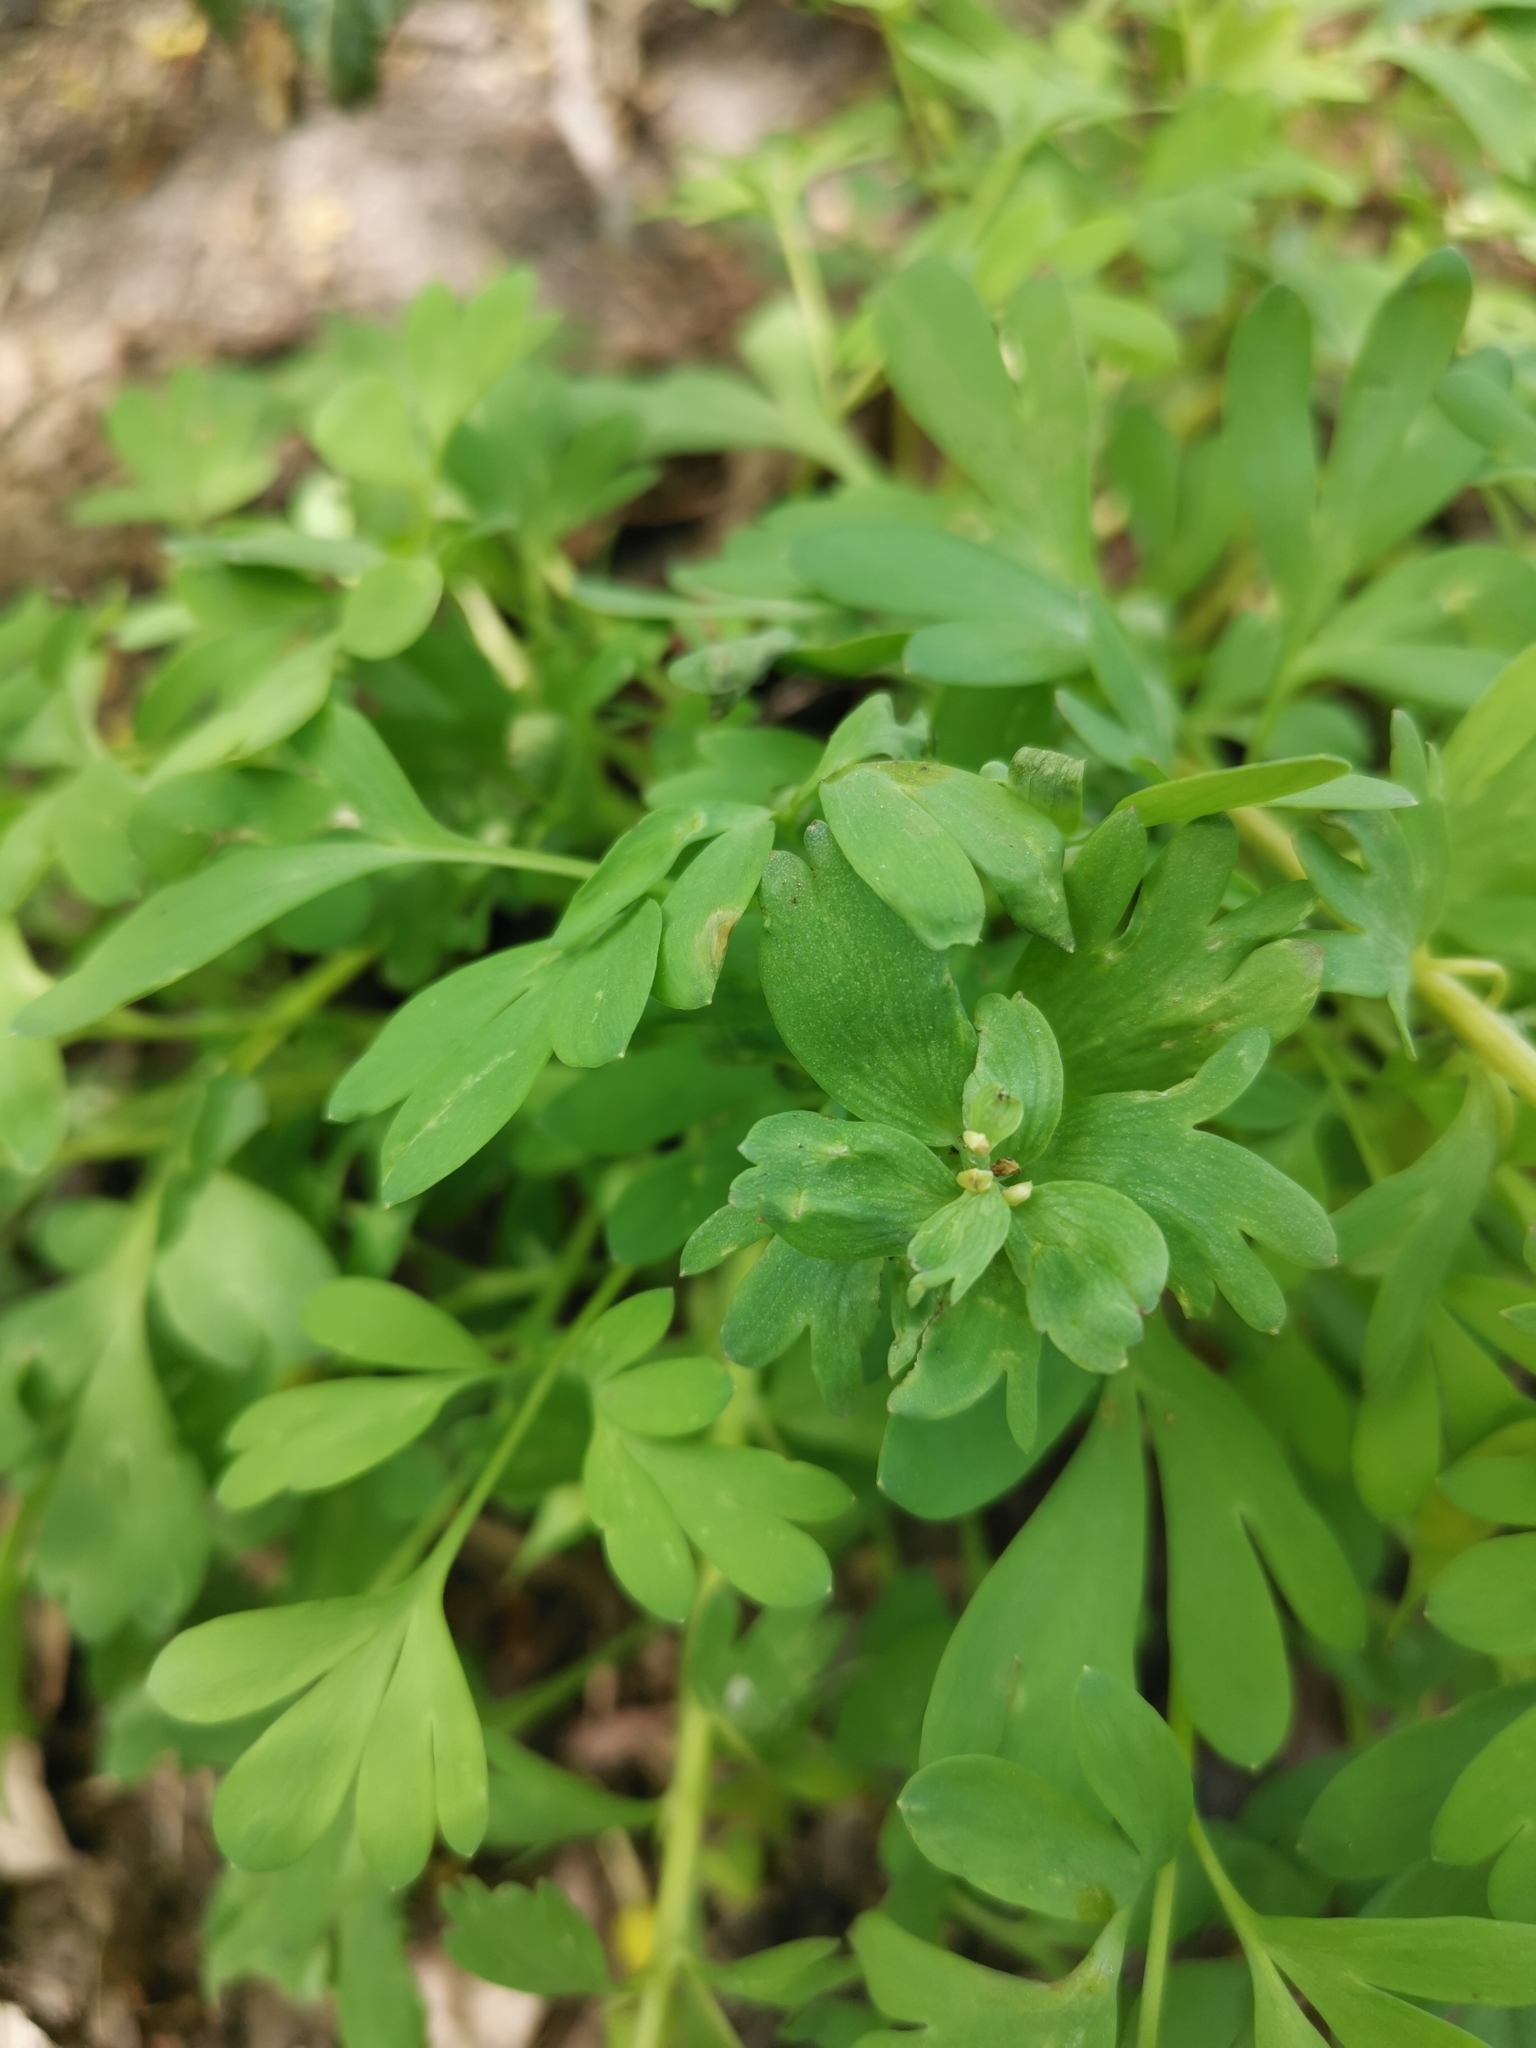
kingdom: Plantae
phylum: Tracheophyta
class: Magnoliopsida
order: Ranunculales
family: Papaveraceae
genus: Corydalis
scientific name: Corydalis solida
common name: Bird-in-a-bush
